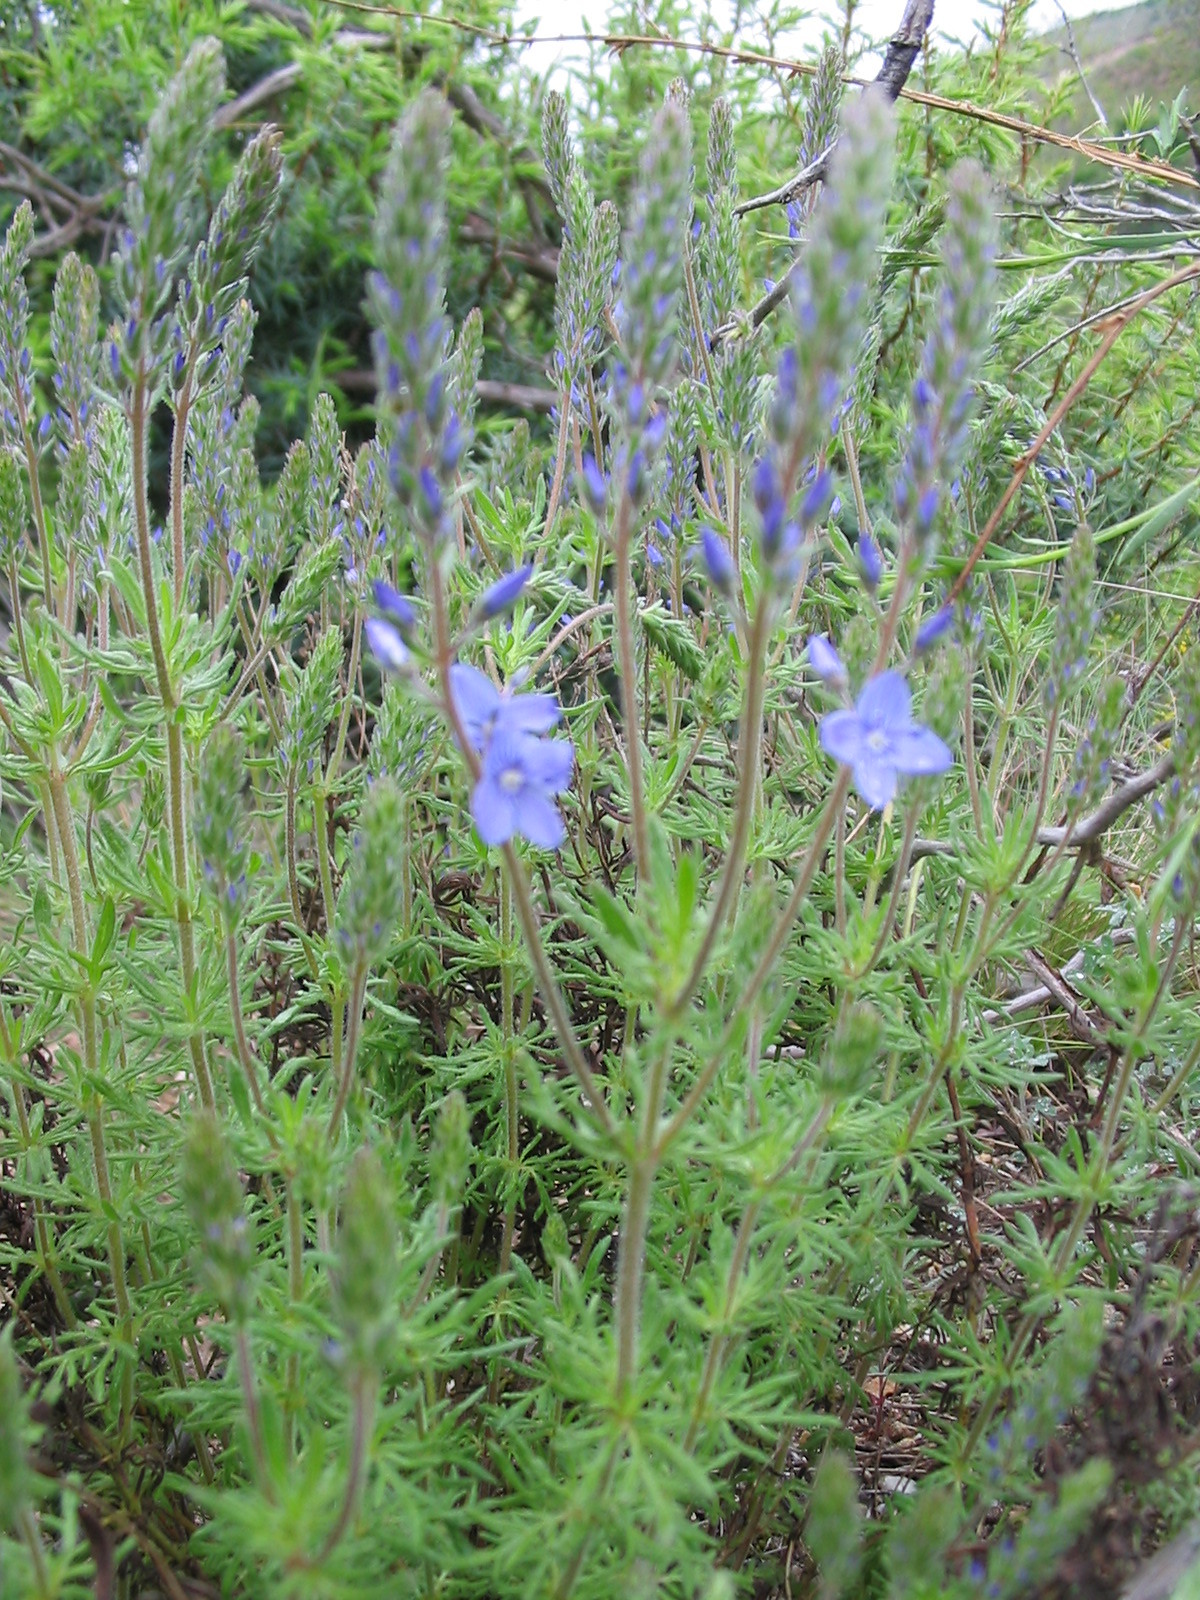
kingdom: Plantae
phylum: Tracheophyta
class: Magnoliopsida
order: Lamiales
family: Plantaginaceae
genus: Veronica
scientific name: Veronica austriaca
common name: Large speedwell
